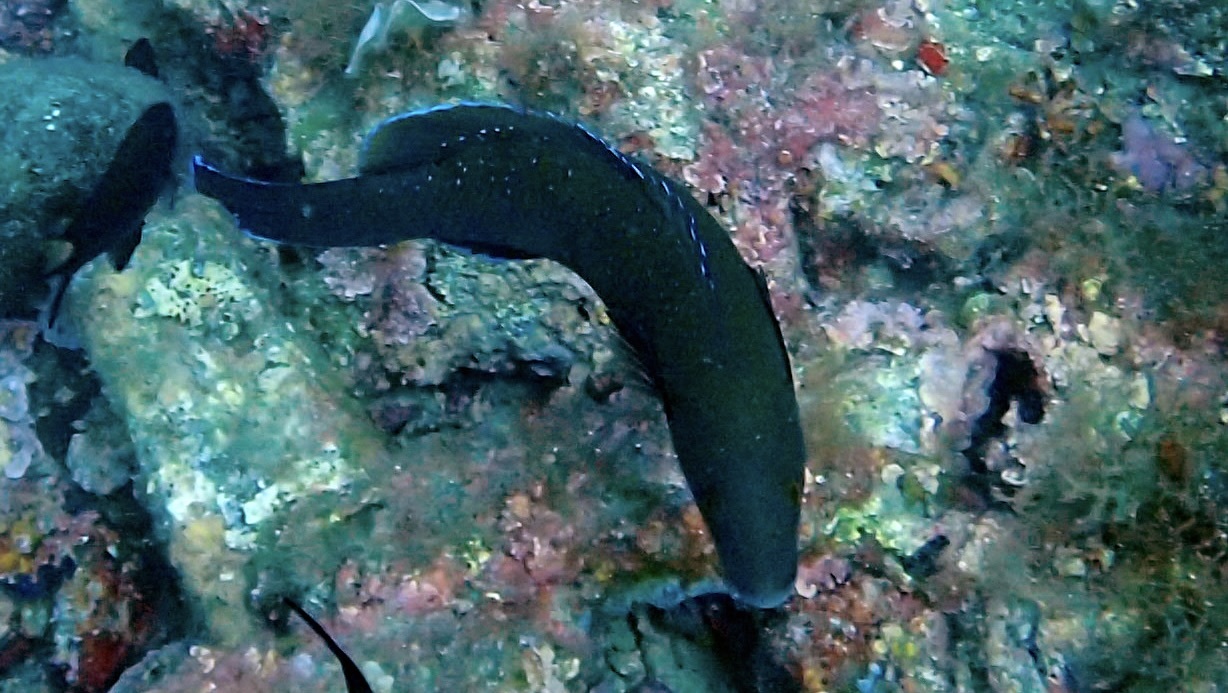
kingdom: Animalia
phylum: Chordata
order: Perciformes
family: Labridae
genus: Labrus
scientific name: Labrus merula
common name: Brown wrasse
